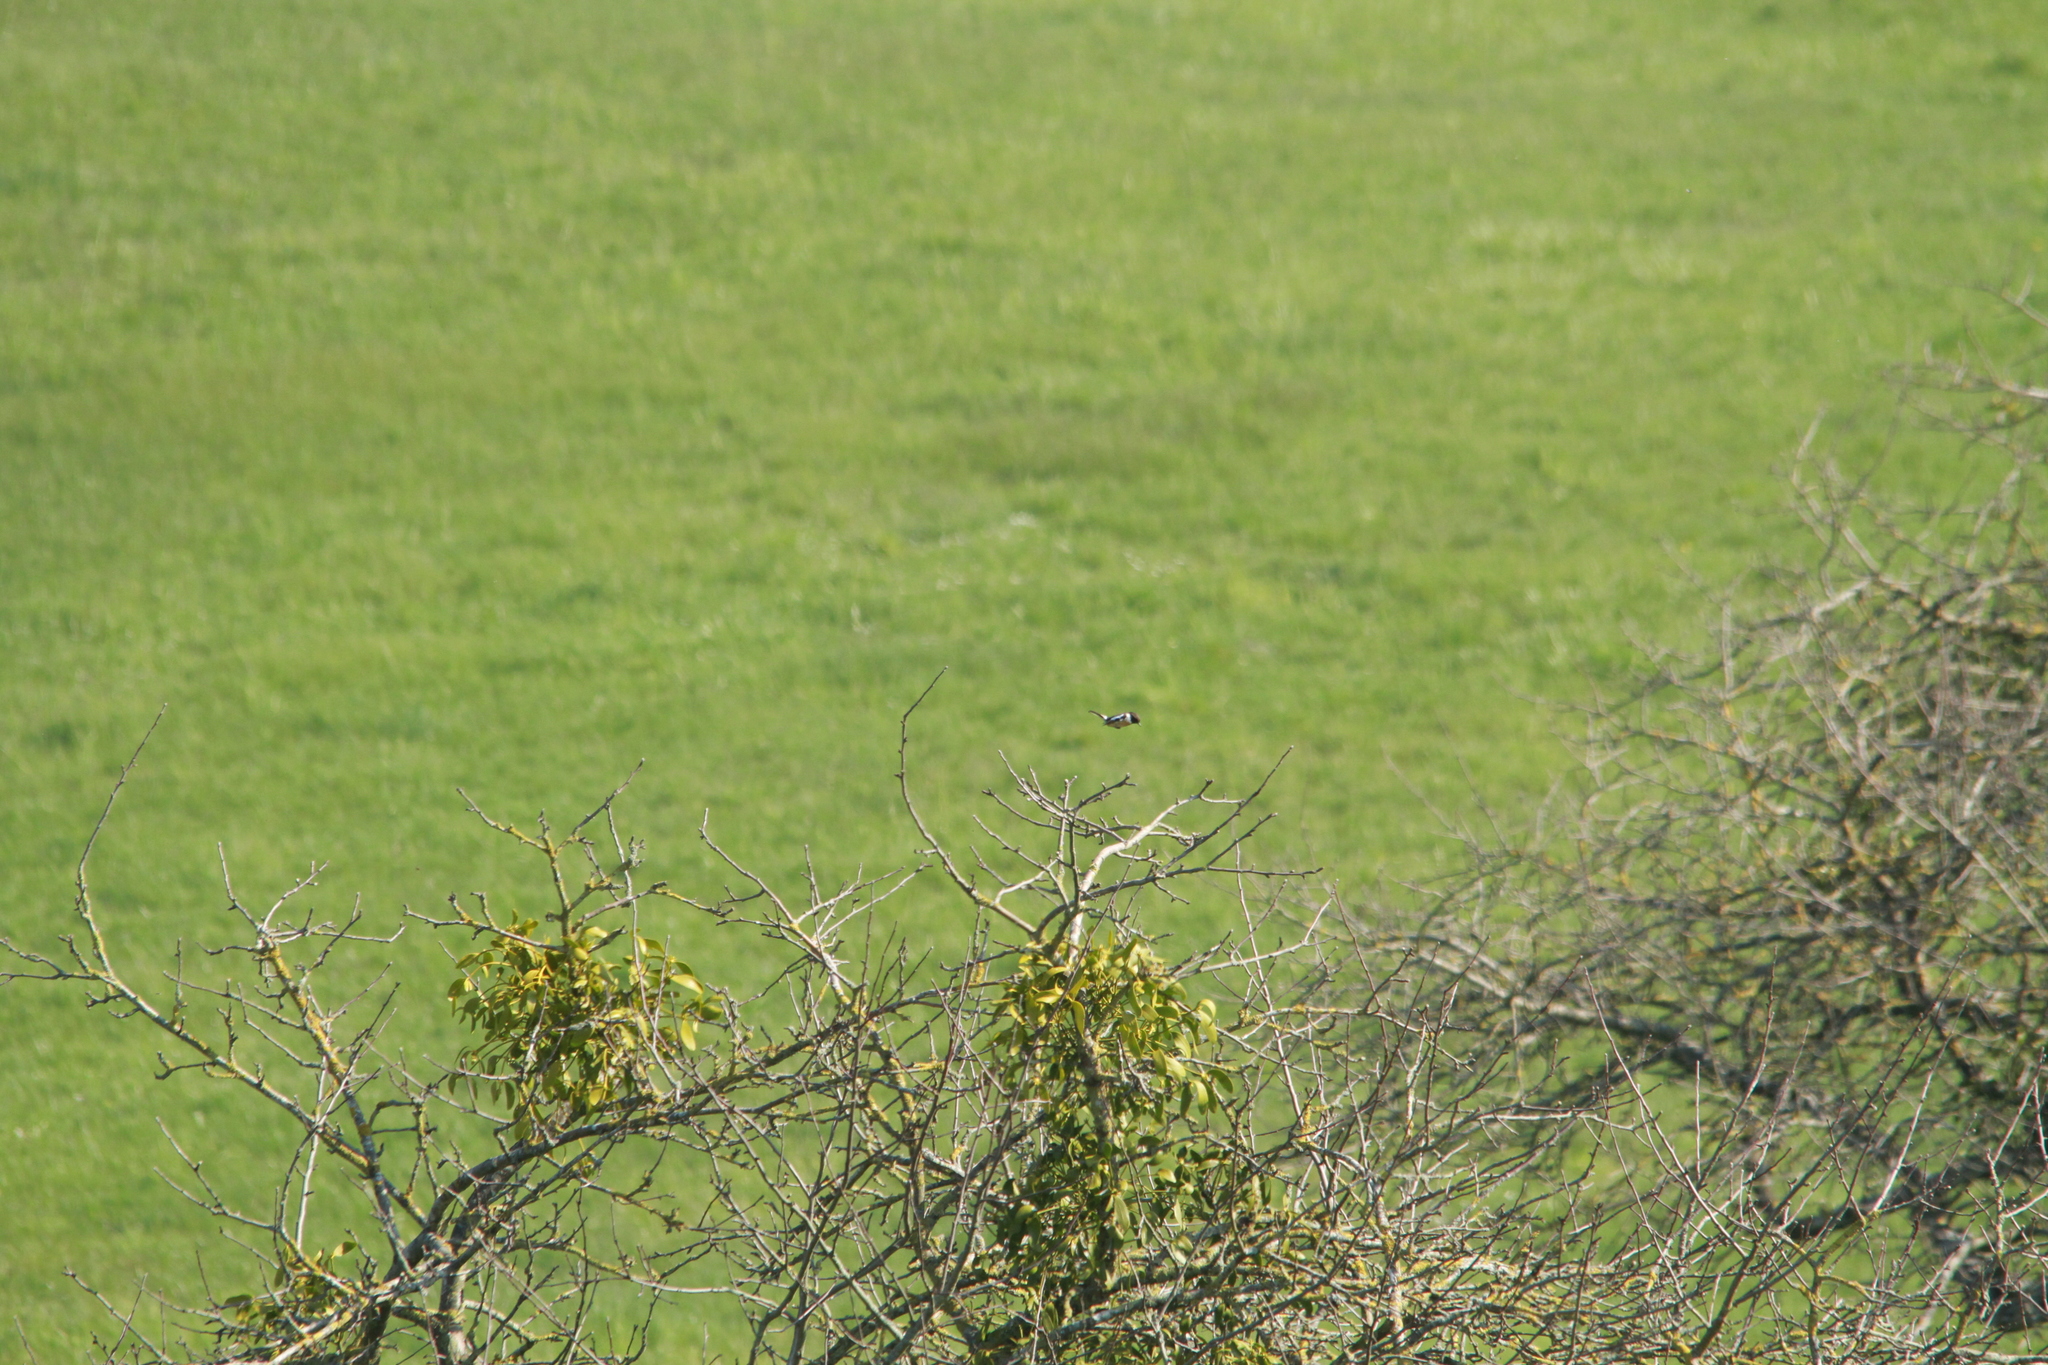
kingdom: Animalia
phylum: Chordata
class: Aves
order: Passeriformes
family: Muscicapidae
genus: Saxicola
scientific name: Saxicola rubicola
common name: European stonechat
